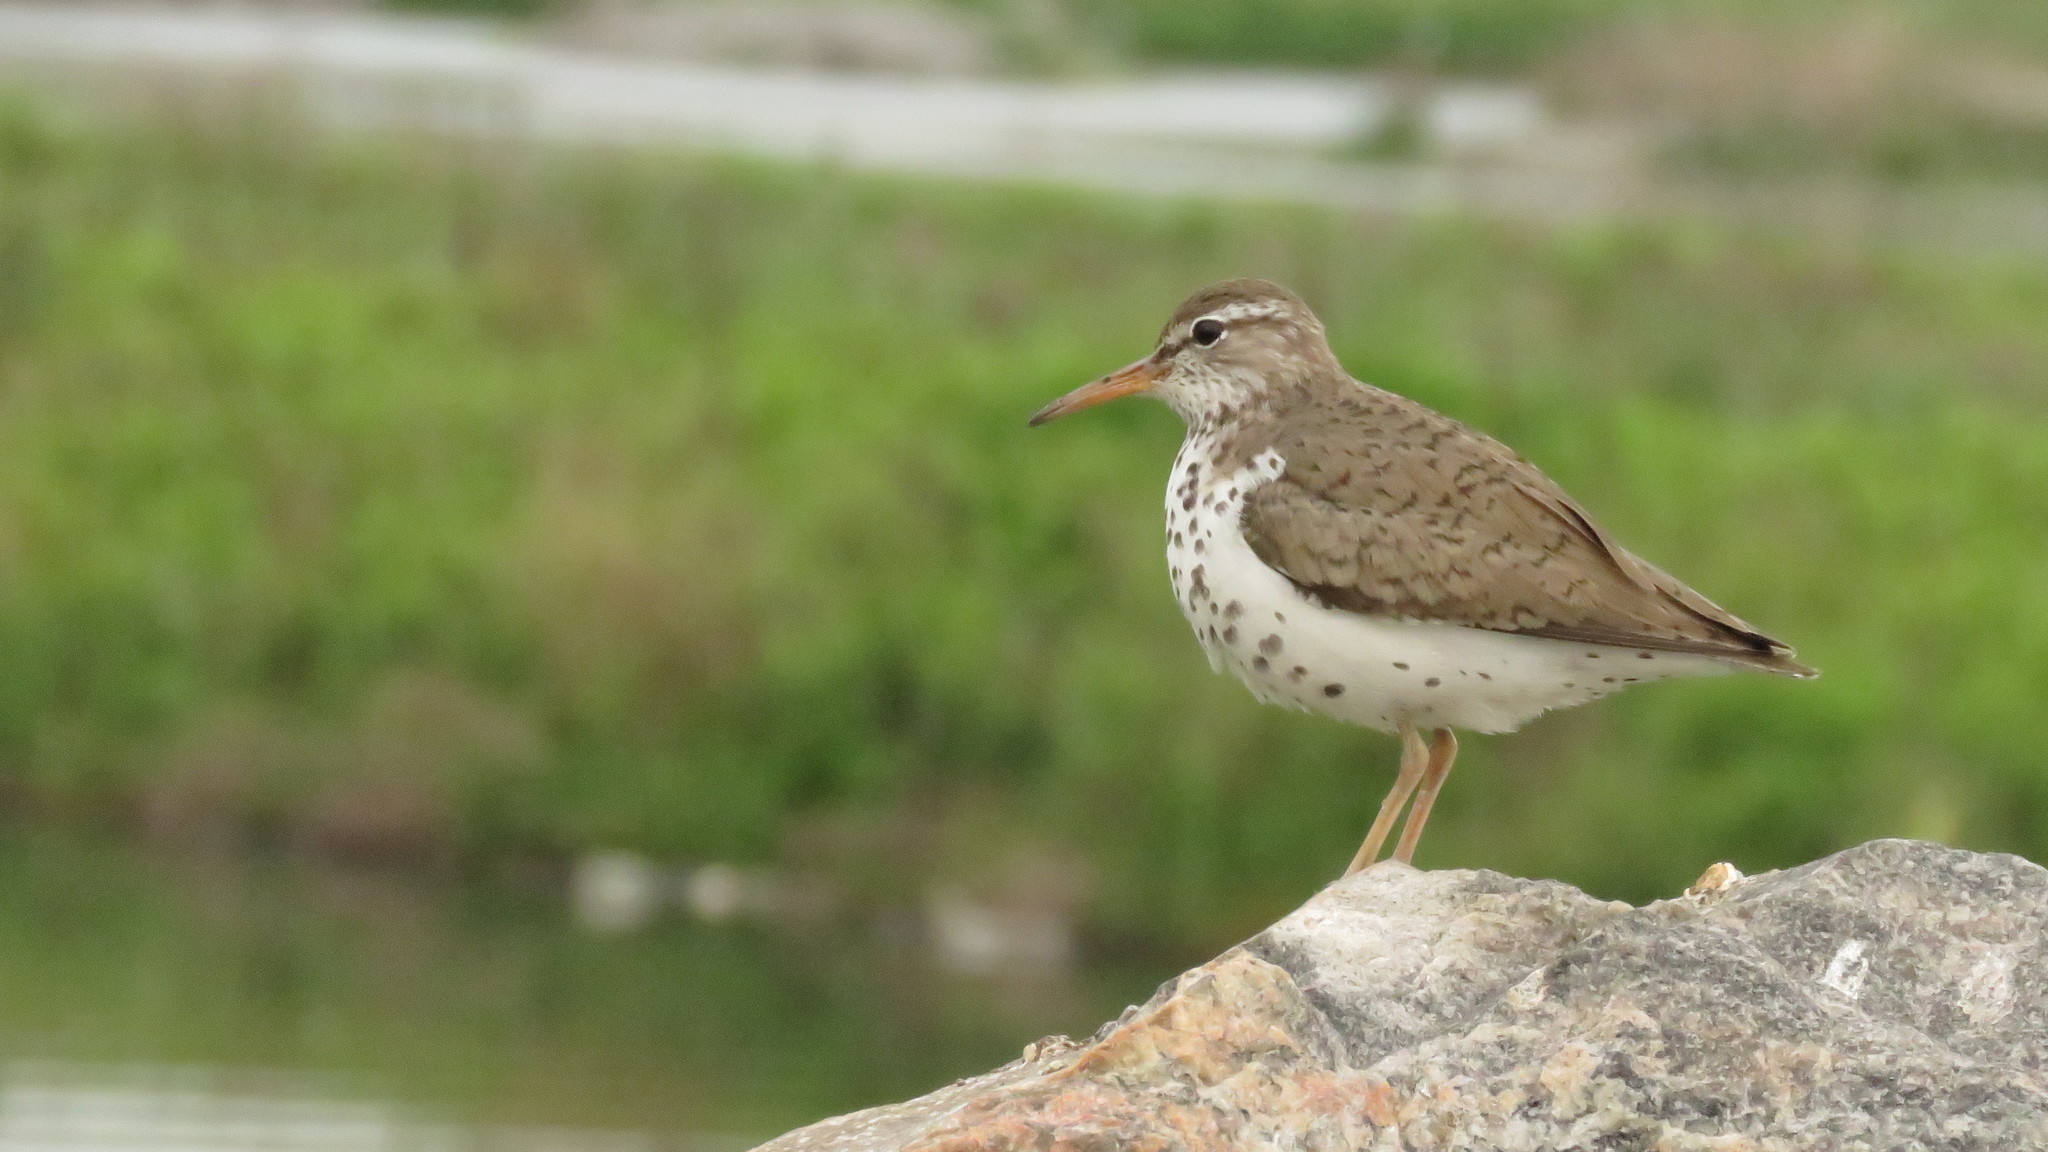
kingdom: Animalia
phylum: Chordata
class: Aves
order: Charadriiformes
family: Scolopacidae
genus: Actitis
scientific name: Actitis macularius
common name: Spotted sandpiper
